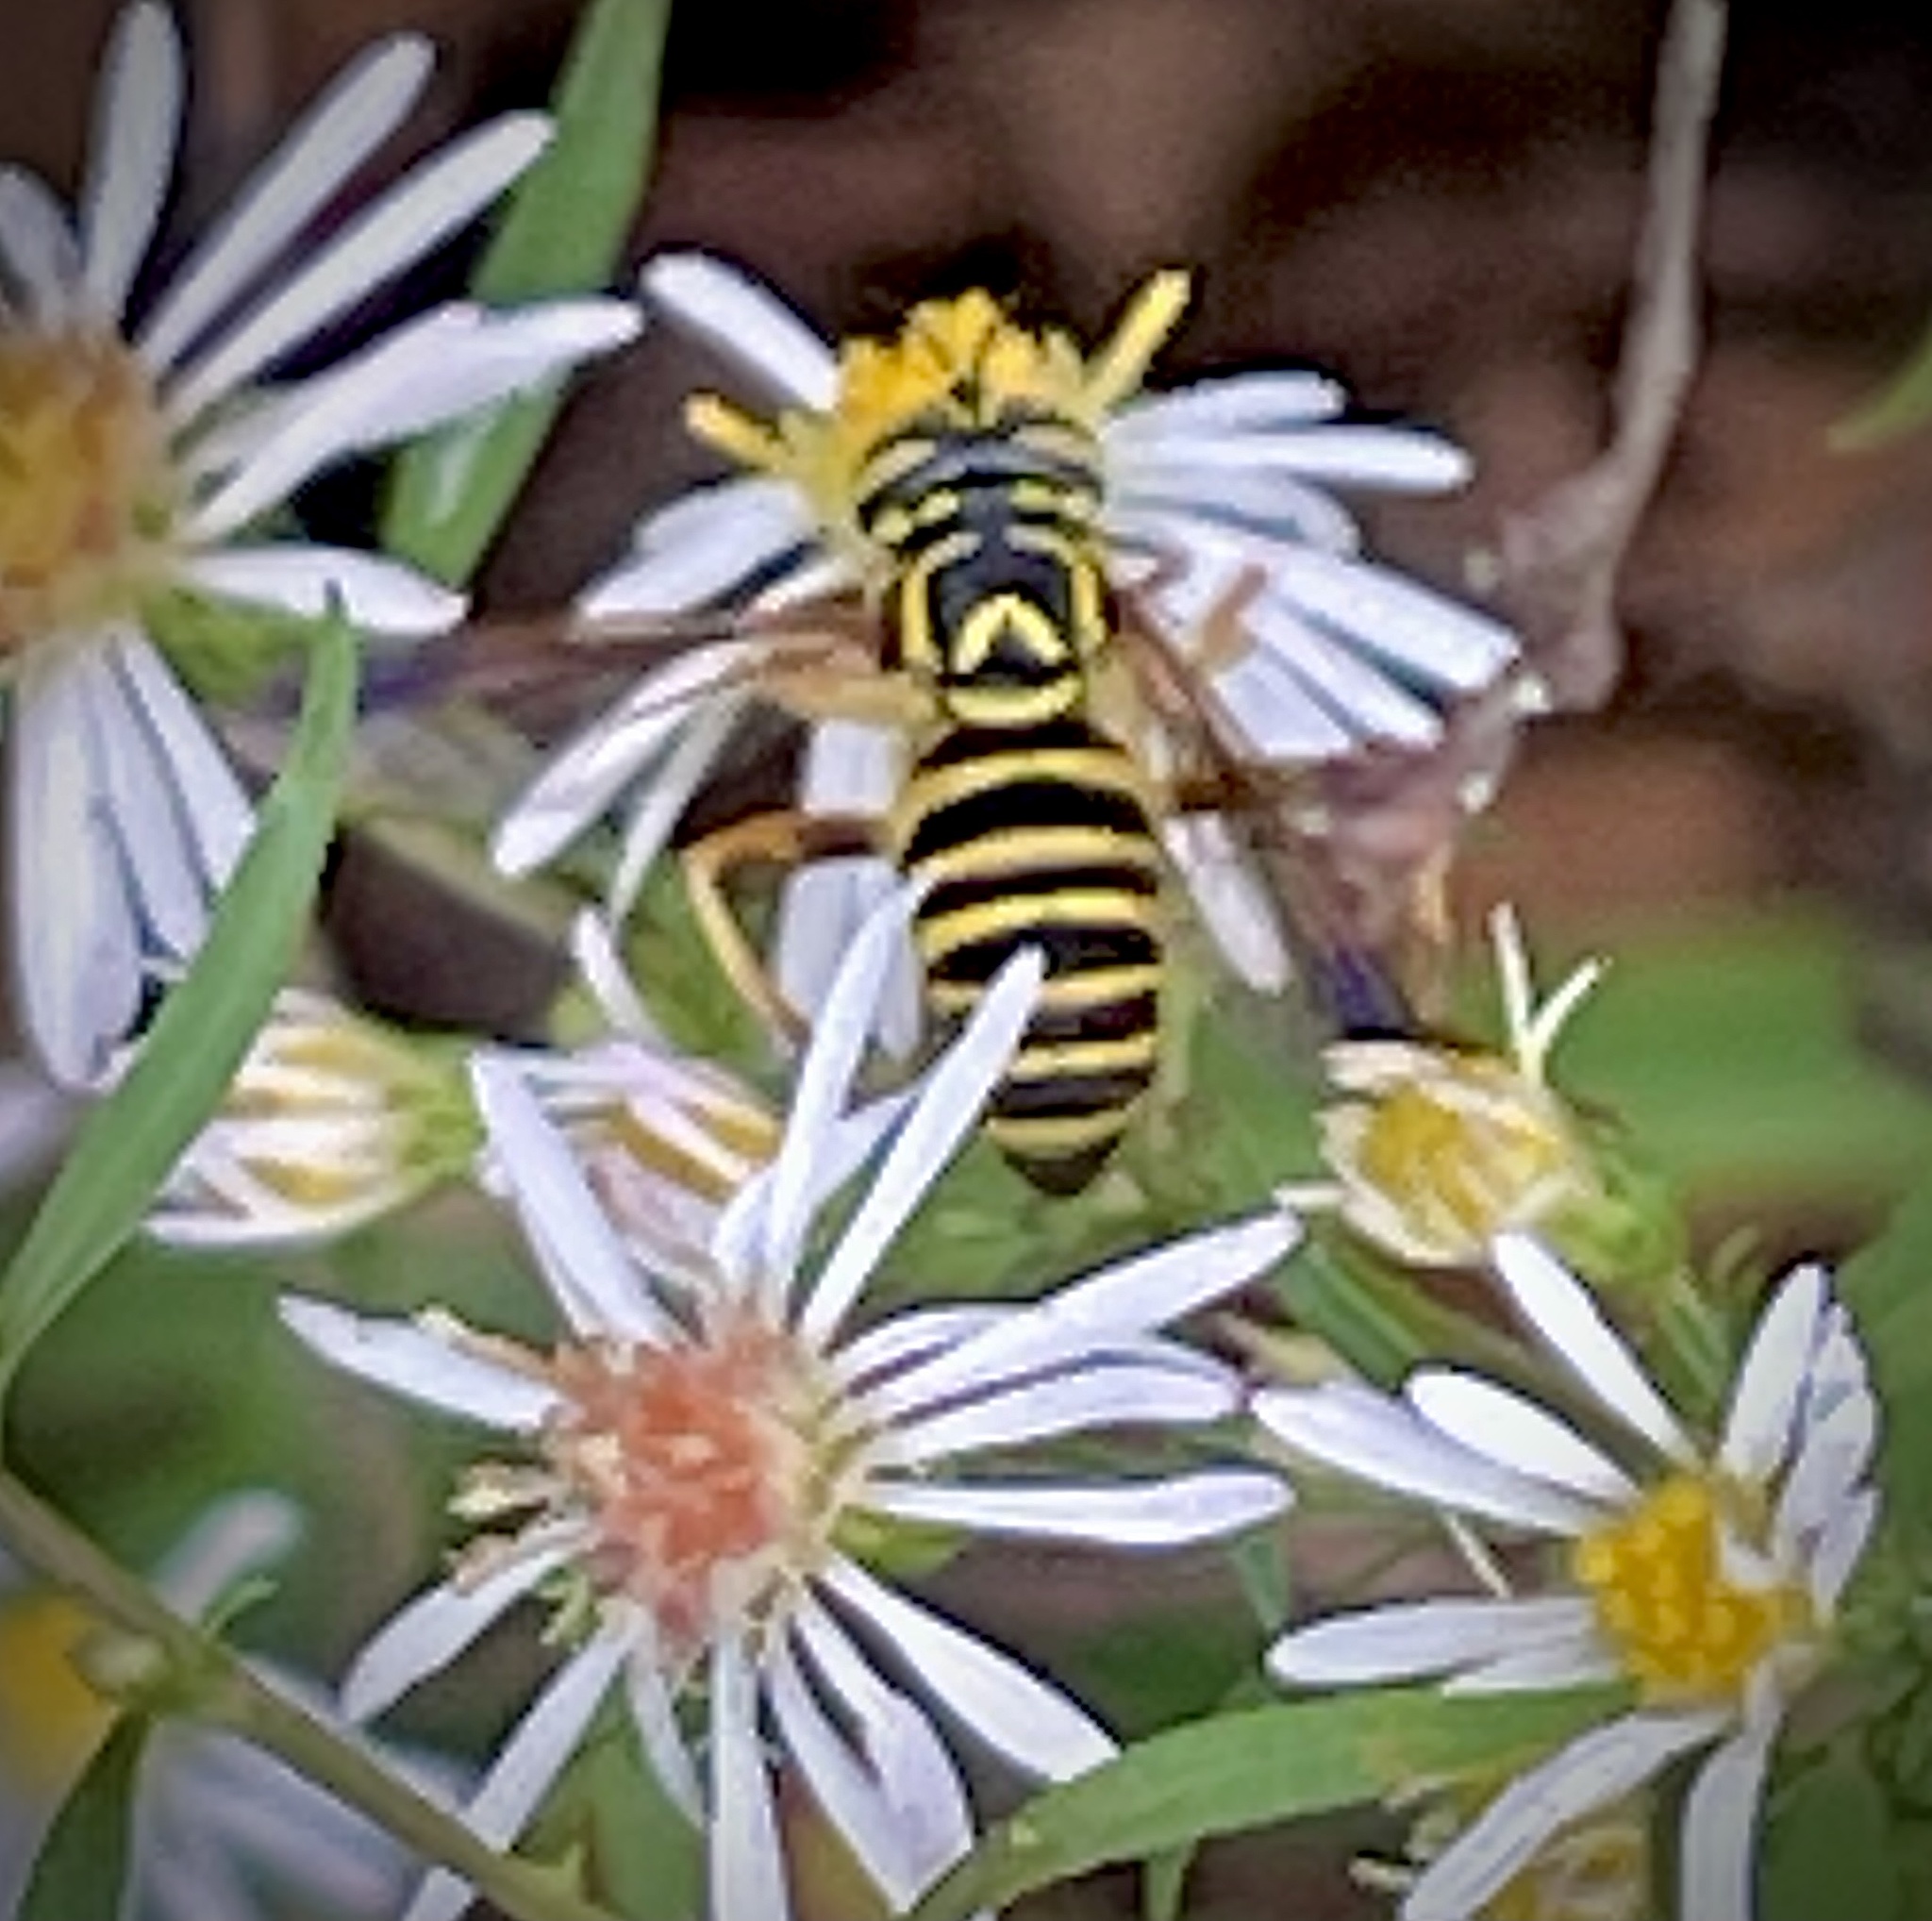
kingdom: Animalia
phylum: Arthropoda
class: Insecta
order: Diptera
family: Syrphidae
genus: Spilomyia
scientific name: Spilomyia longicornis
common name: Eastern hornet fly
